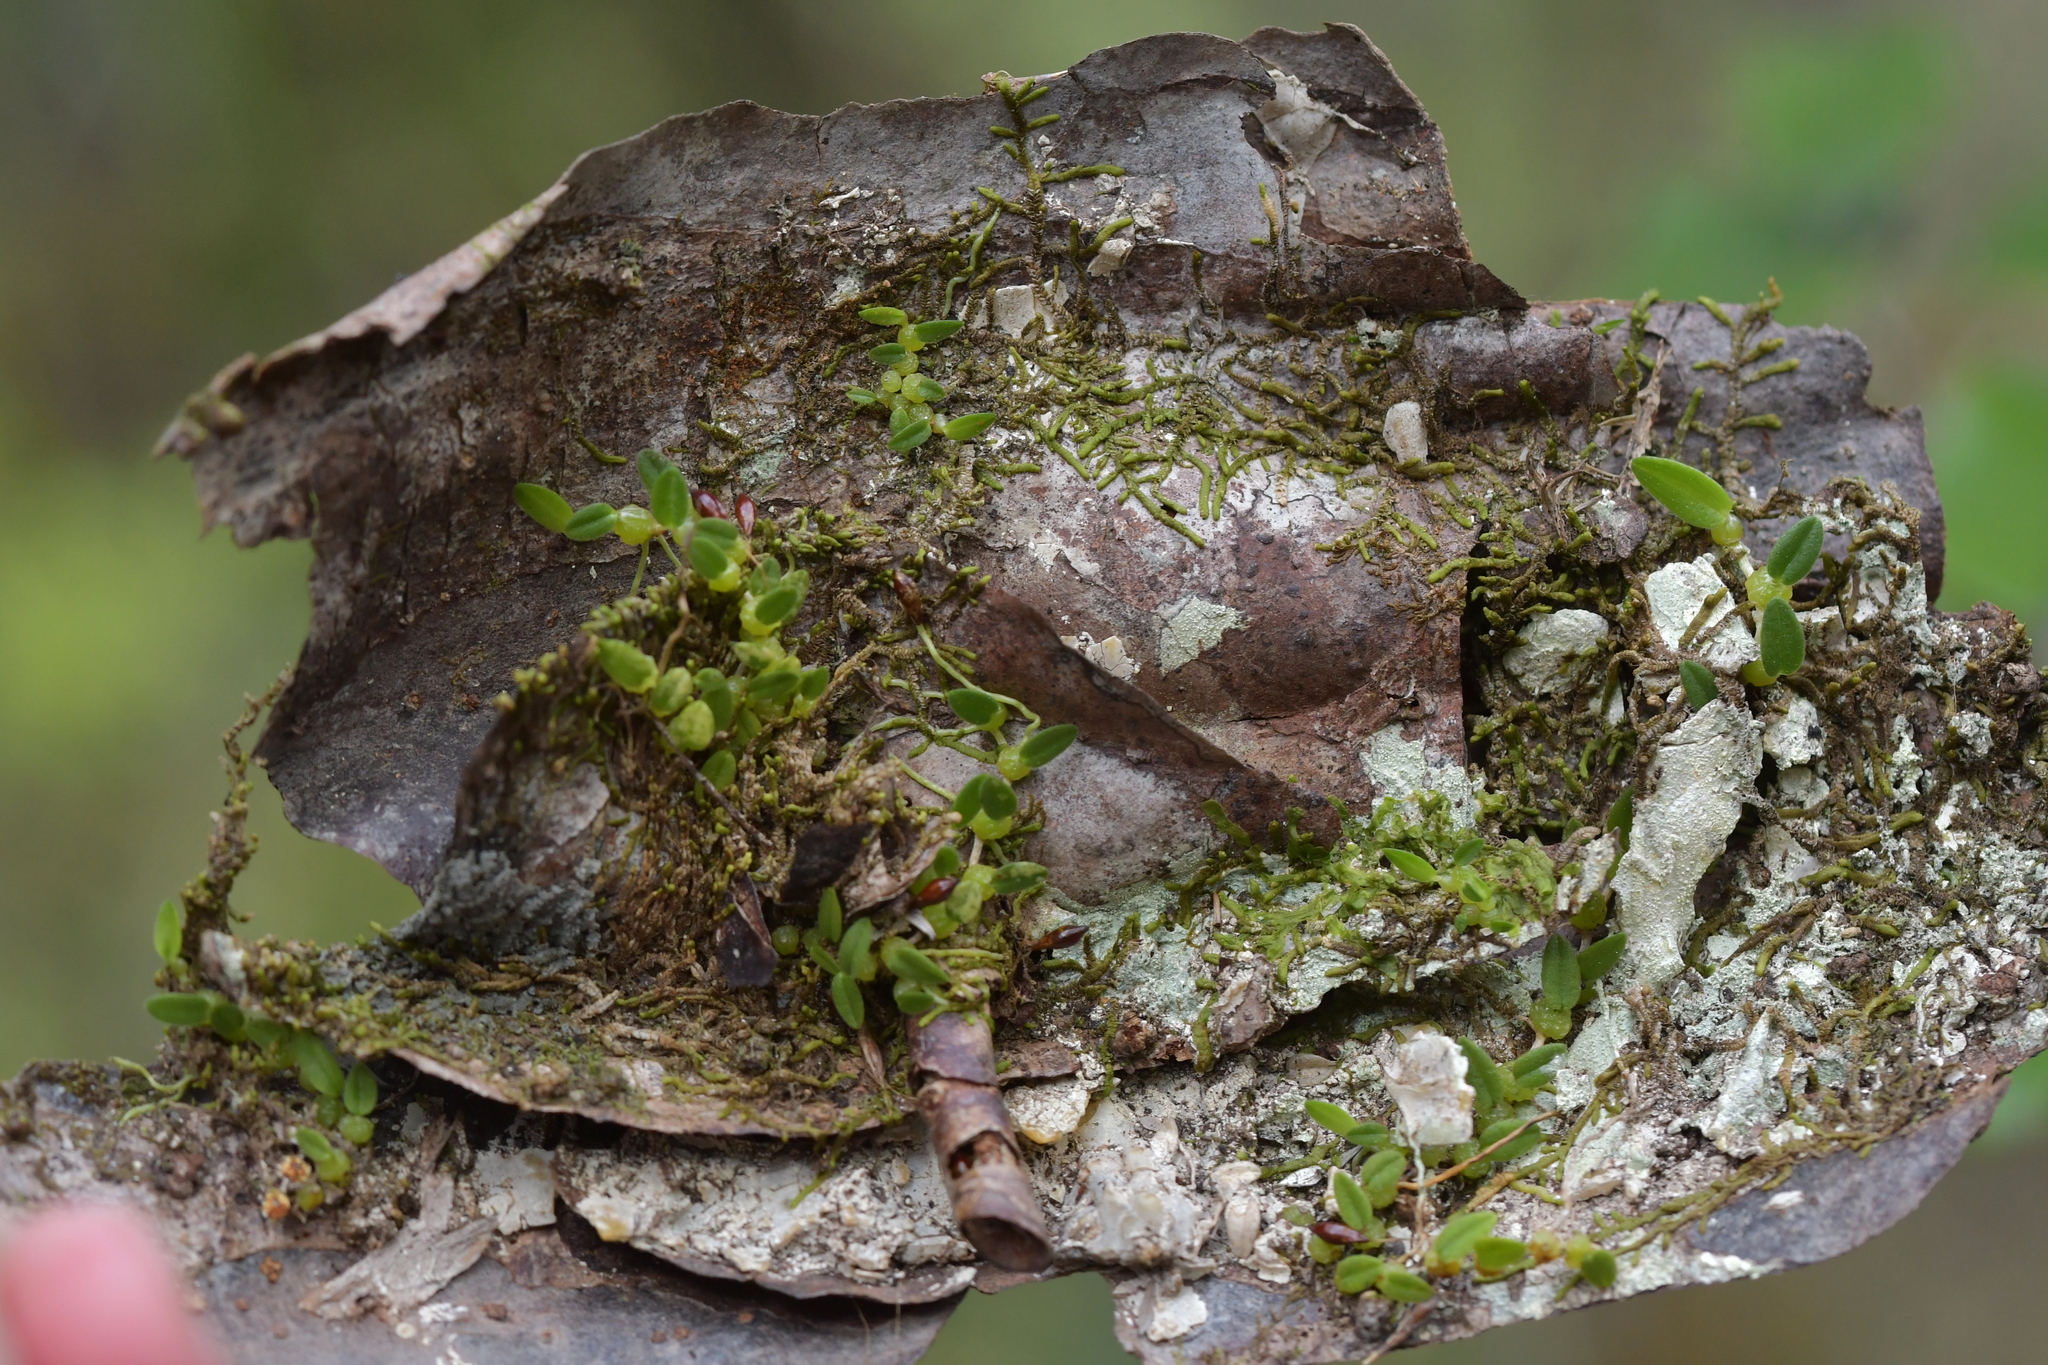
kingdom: Plantae
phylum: Tracheophyta
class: Liliopsida
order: Asparagales
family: Orchidaceae
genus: Bulbophyllum
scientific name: Bulbophyllum pygmaeum
